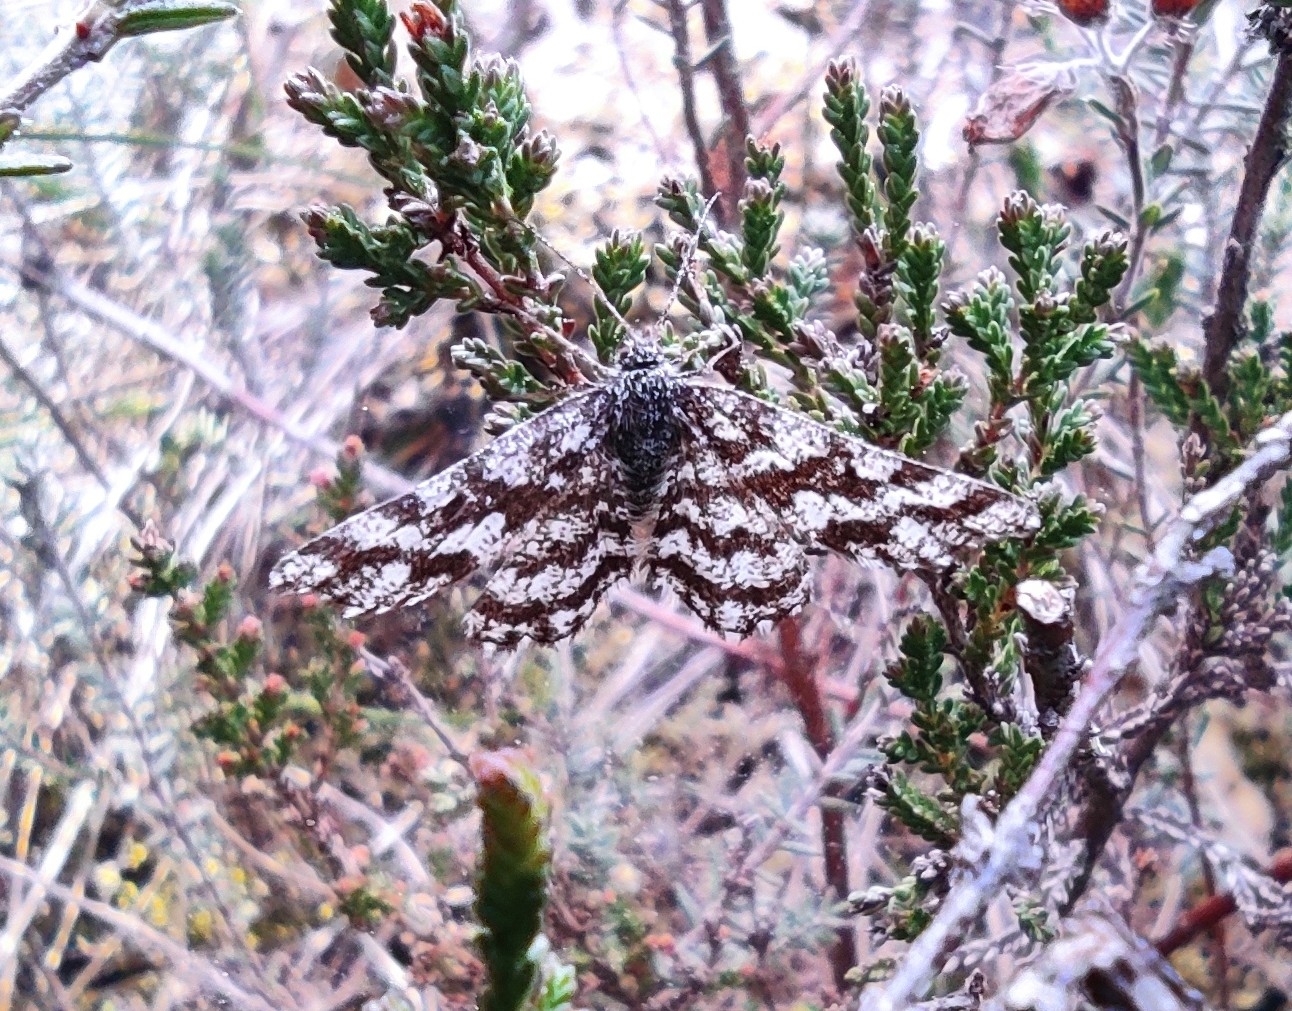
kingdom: Animalia
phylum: Arthropoda
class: Insecta
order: Lepidoptera
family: Geometridae
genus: Ematurga
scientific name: Ematurga atomaria
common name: Common heath
